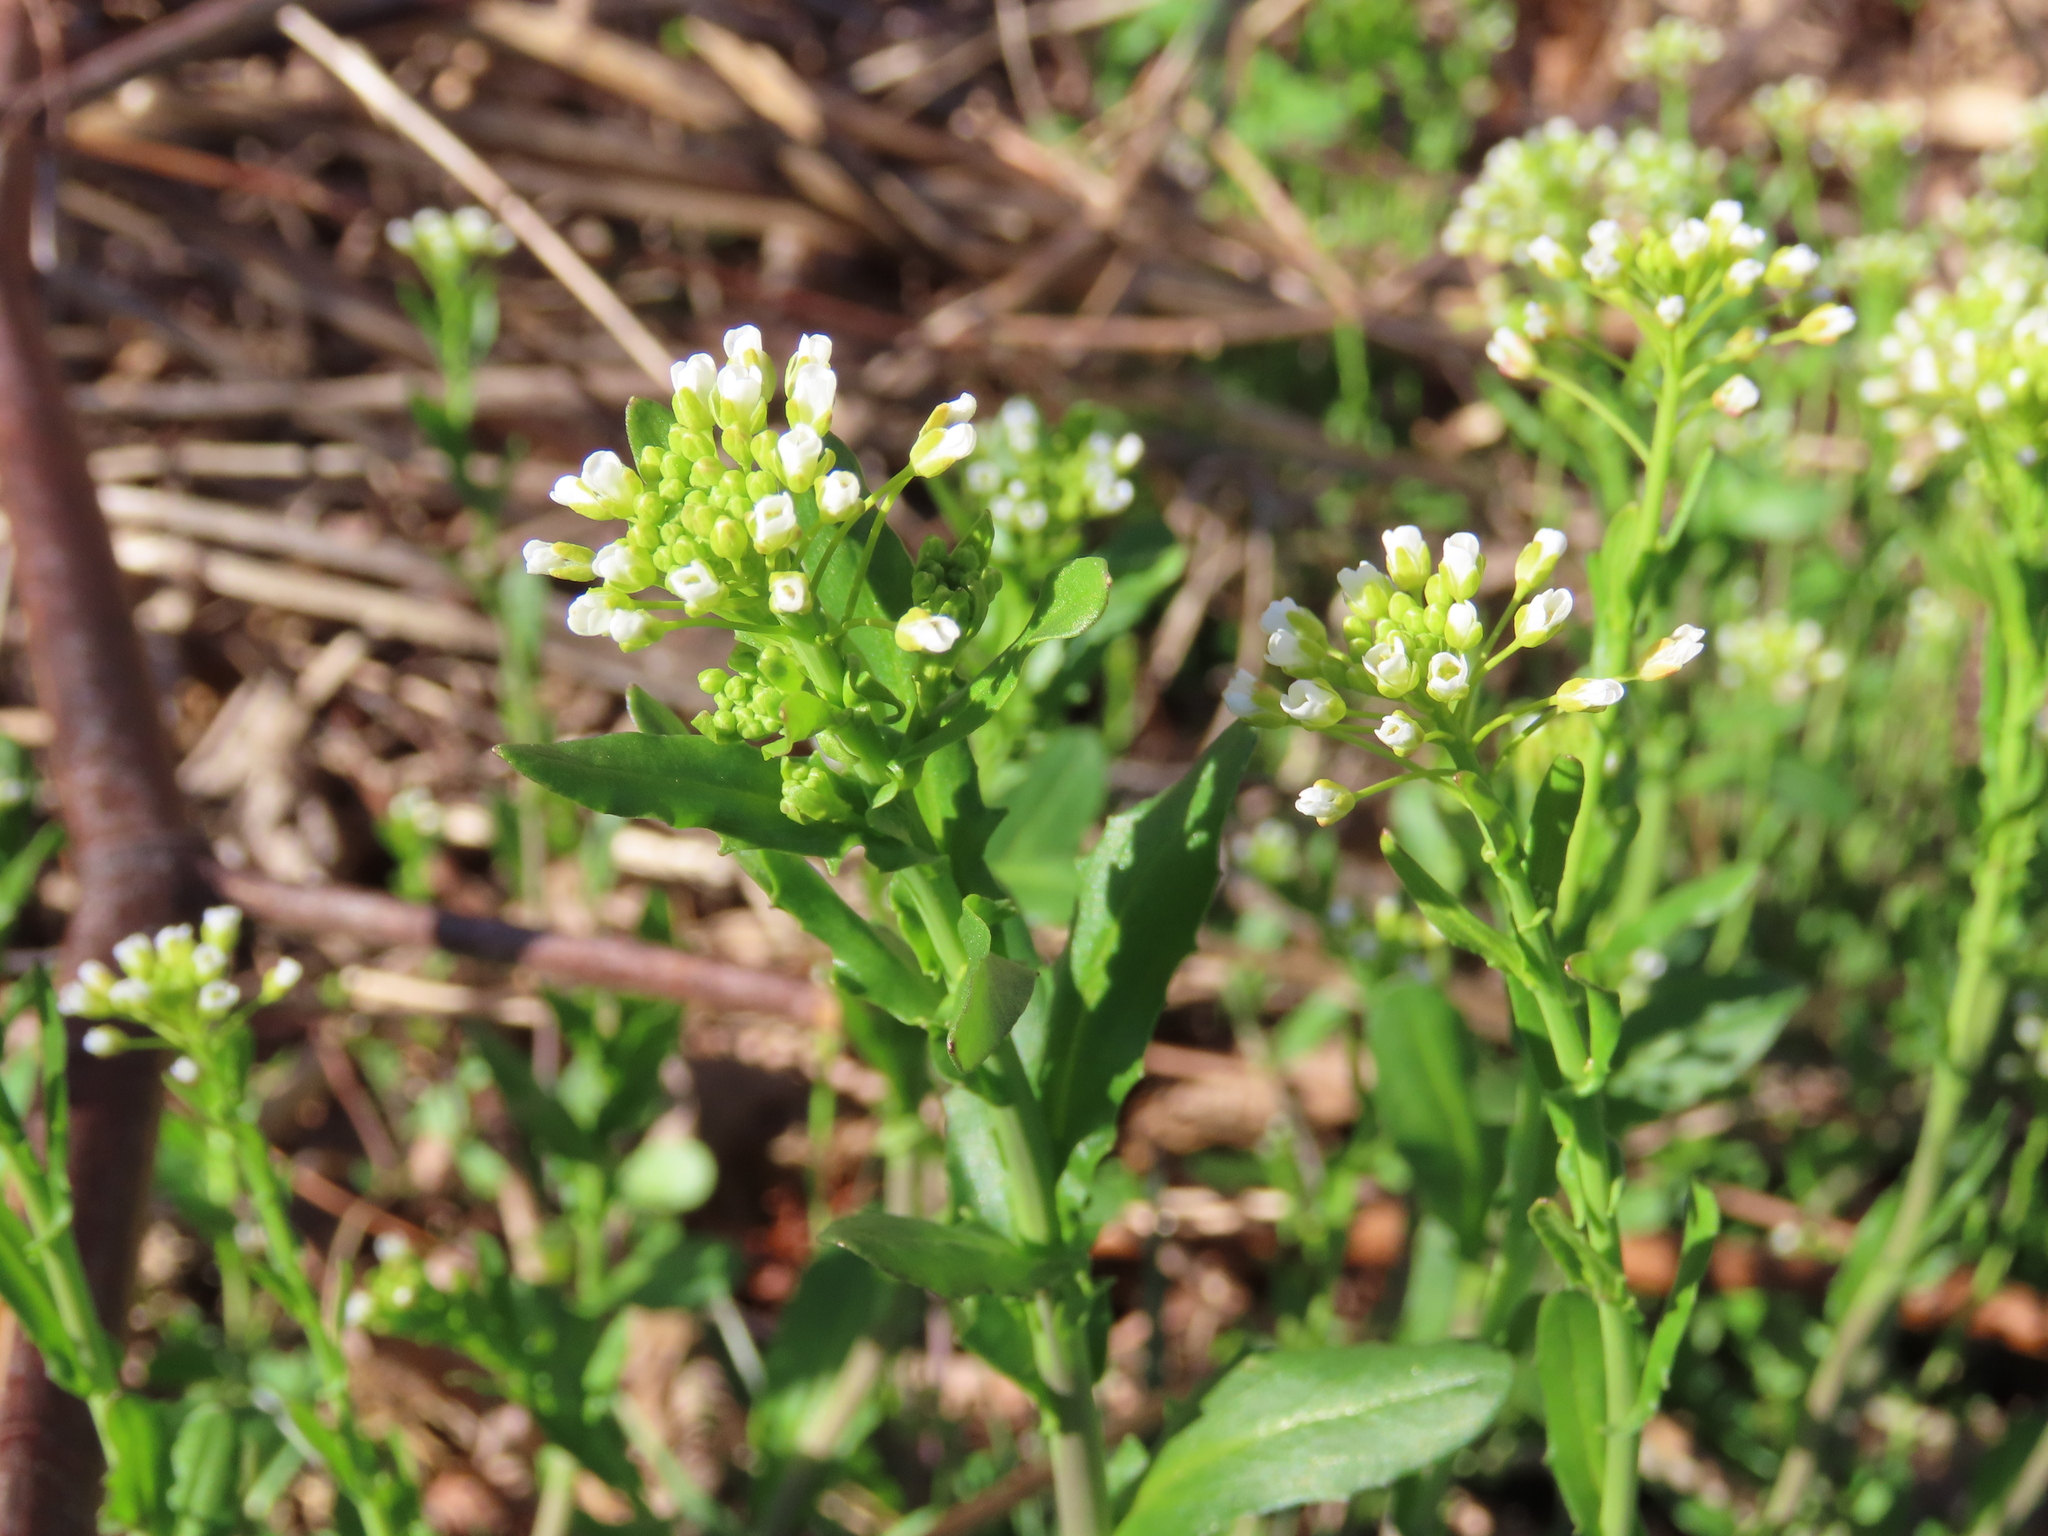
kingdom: Plantae
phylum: Tracheophyta
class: Magnoliopsida
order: Brassicales
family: Brassicaceae
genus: Mummenhoffia
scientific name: Mummenhoffia alliacea
